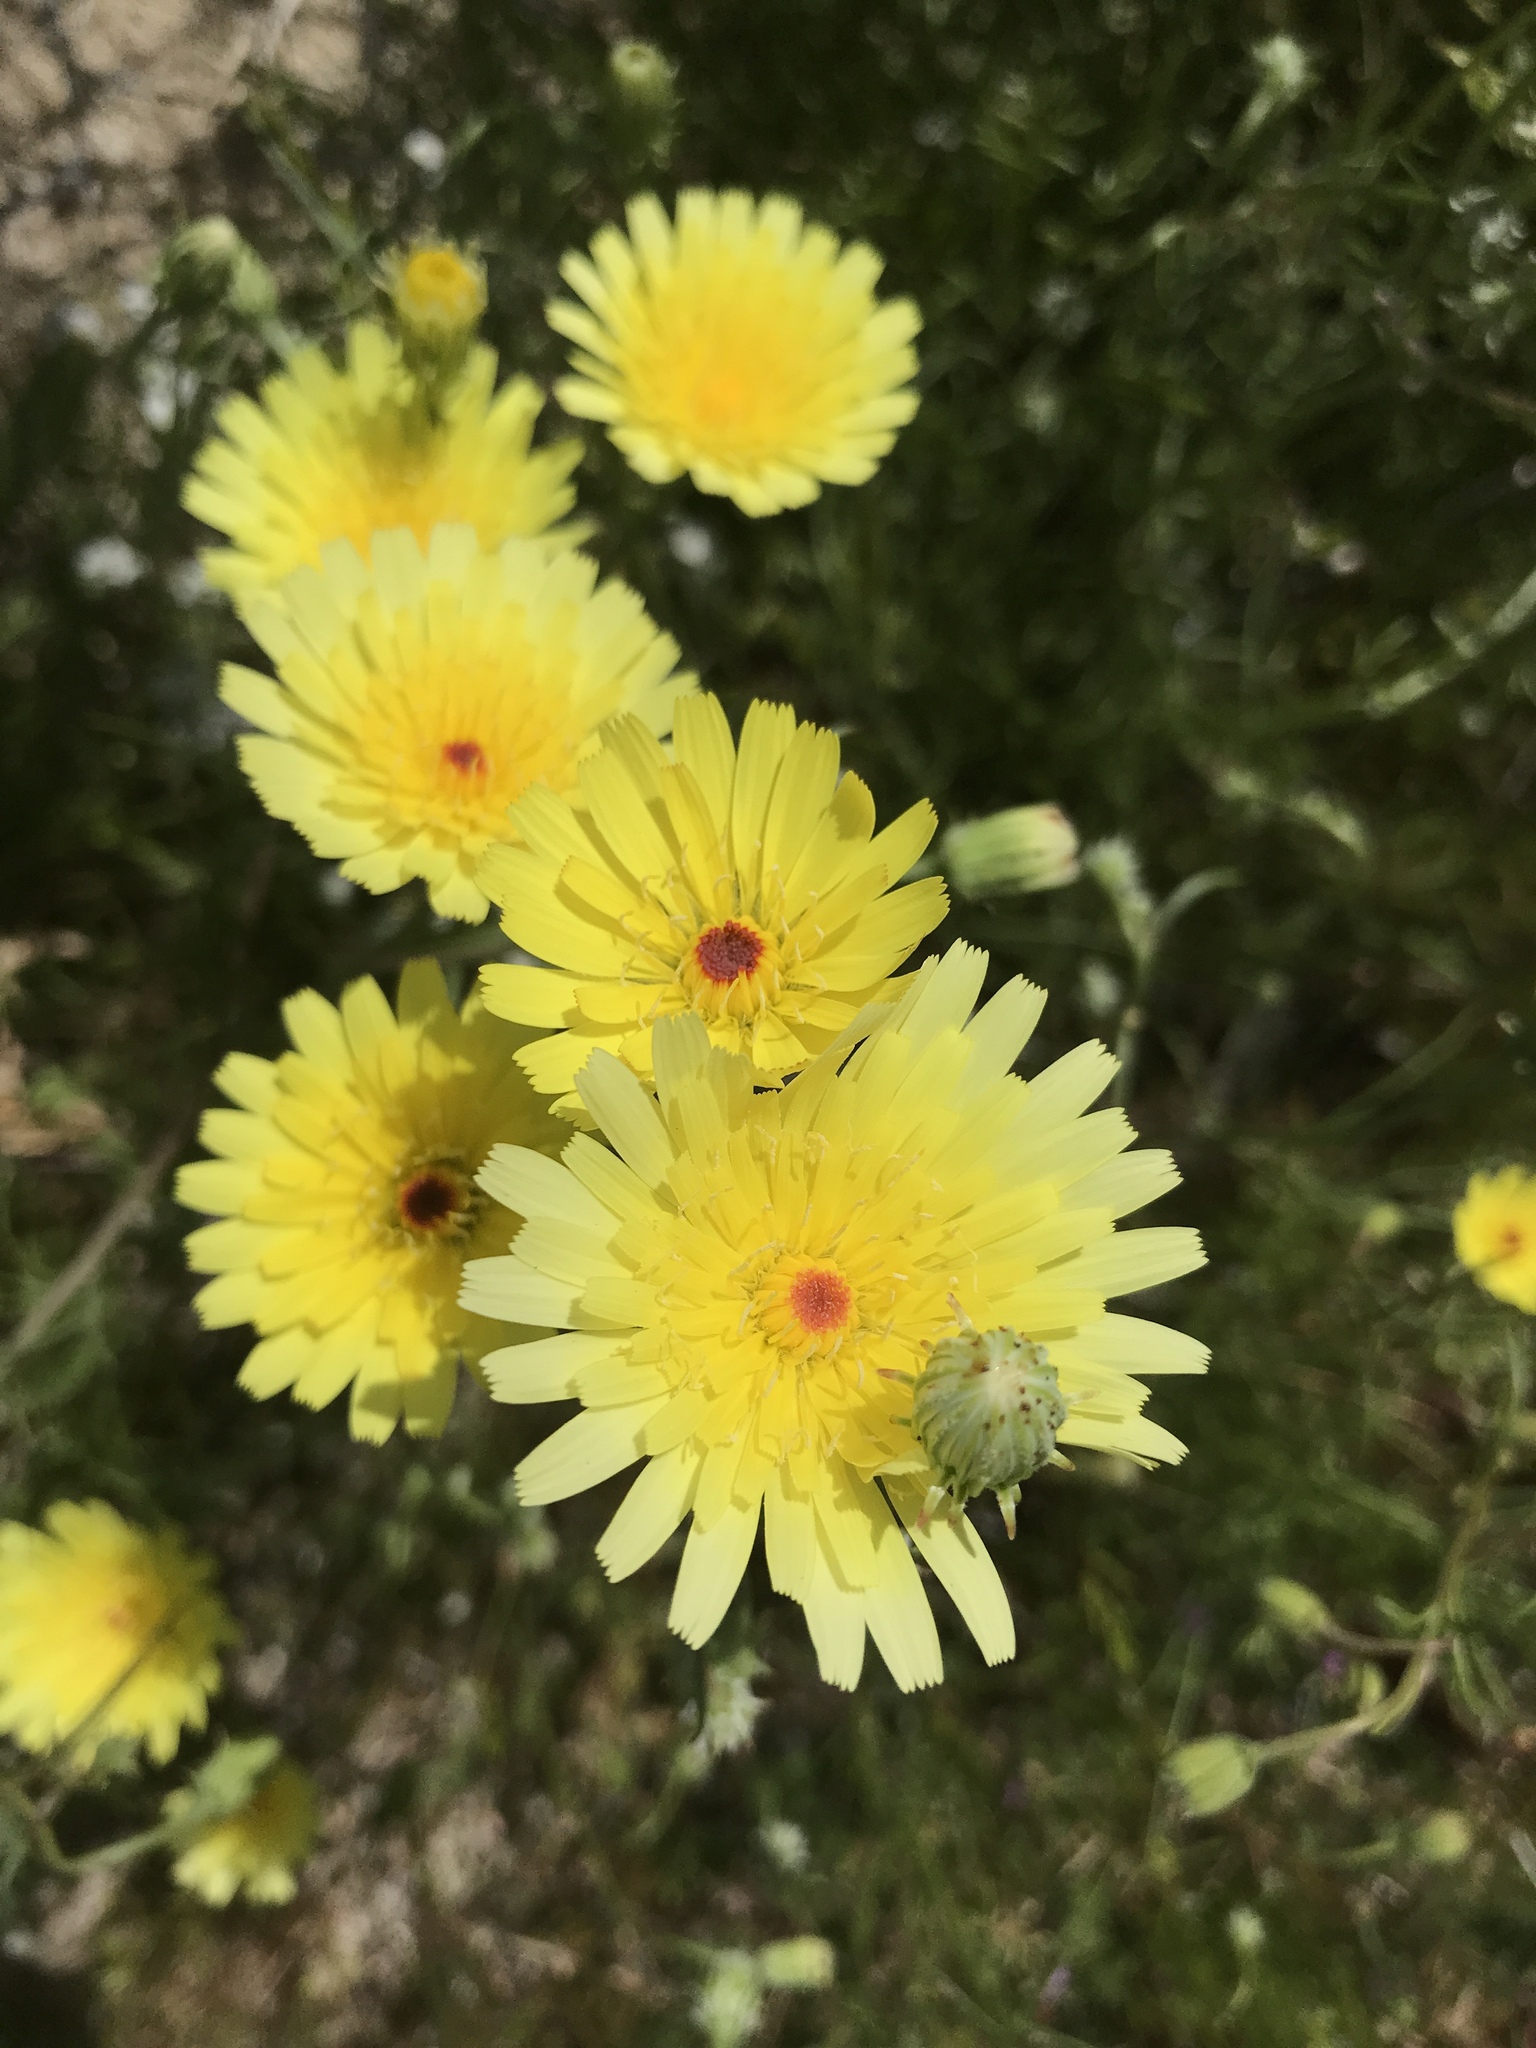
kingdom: Plantae
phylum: Tracheophyta
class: Magnoliopsida
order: Asterales
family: Asteraceae
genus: Malacothrix
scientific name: Malacothrix glabrata
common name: Smooth desert-dandelion
